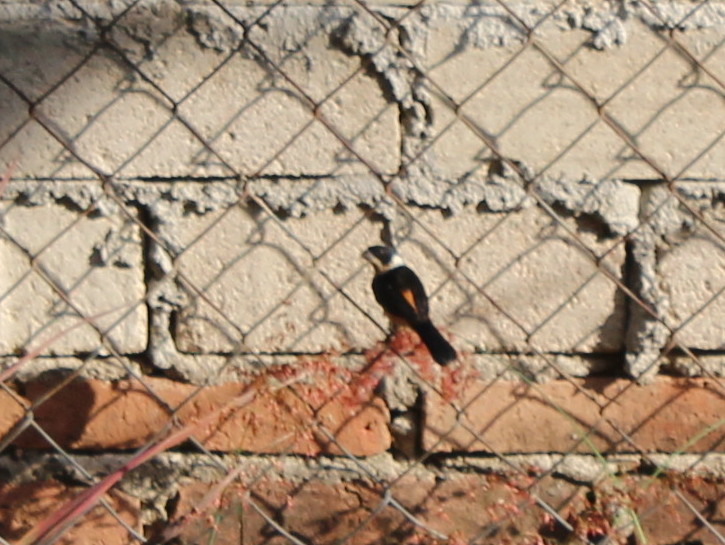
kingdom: Animalia
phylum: Chordata
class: Aves
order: Passeriformes
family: Thraupidae
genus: Sporophila
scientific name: Sporophila torqueola
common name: White-collared seedeater
